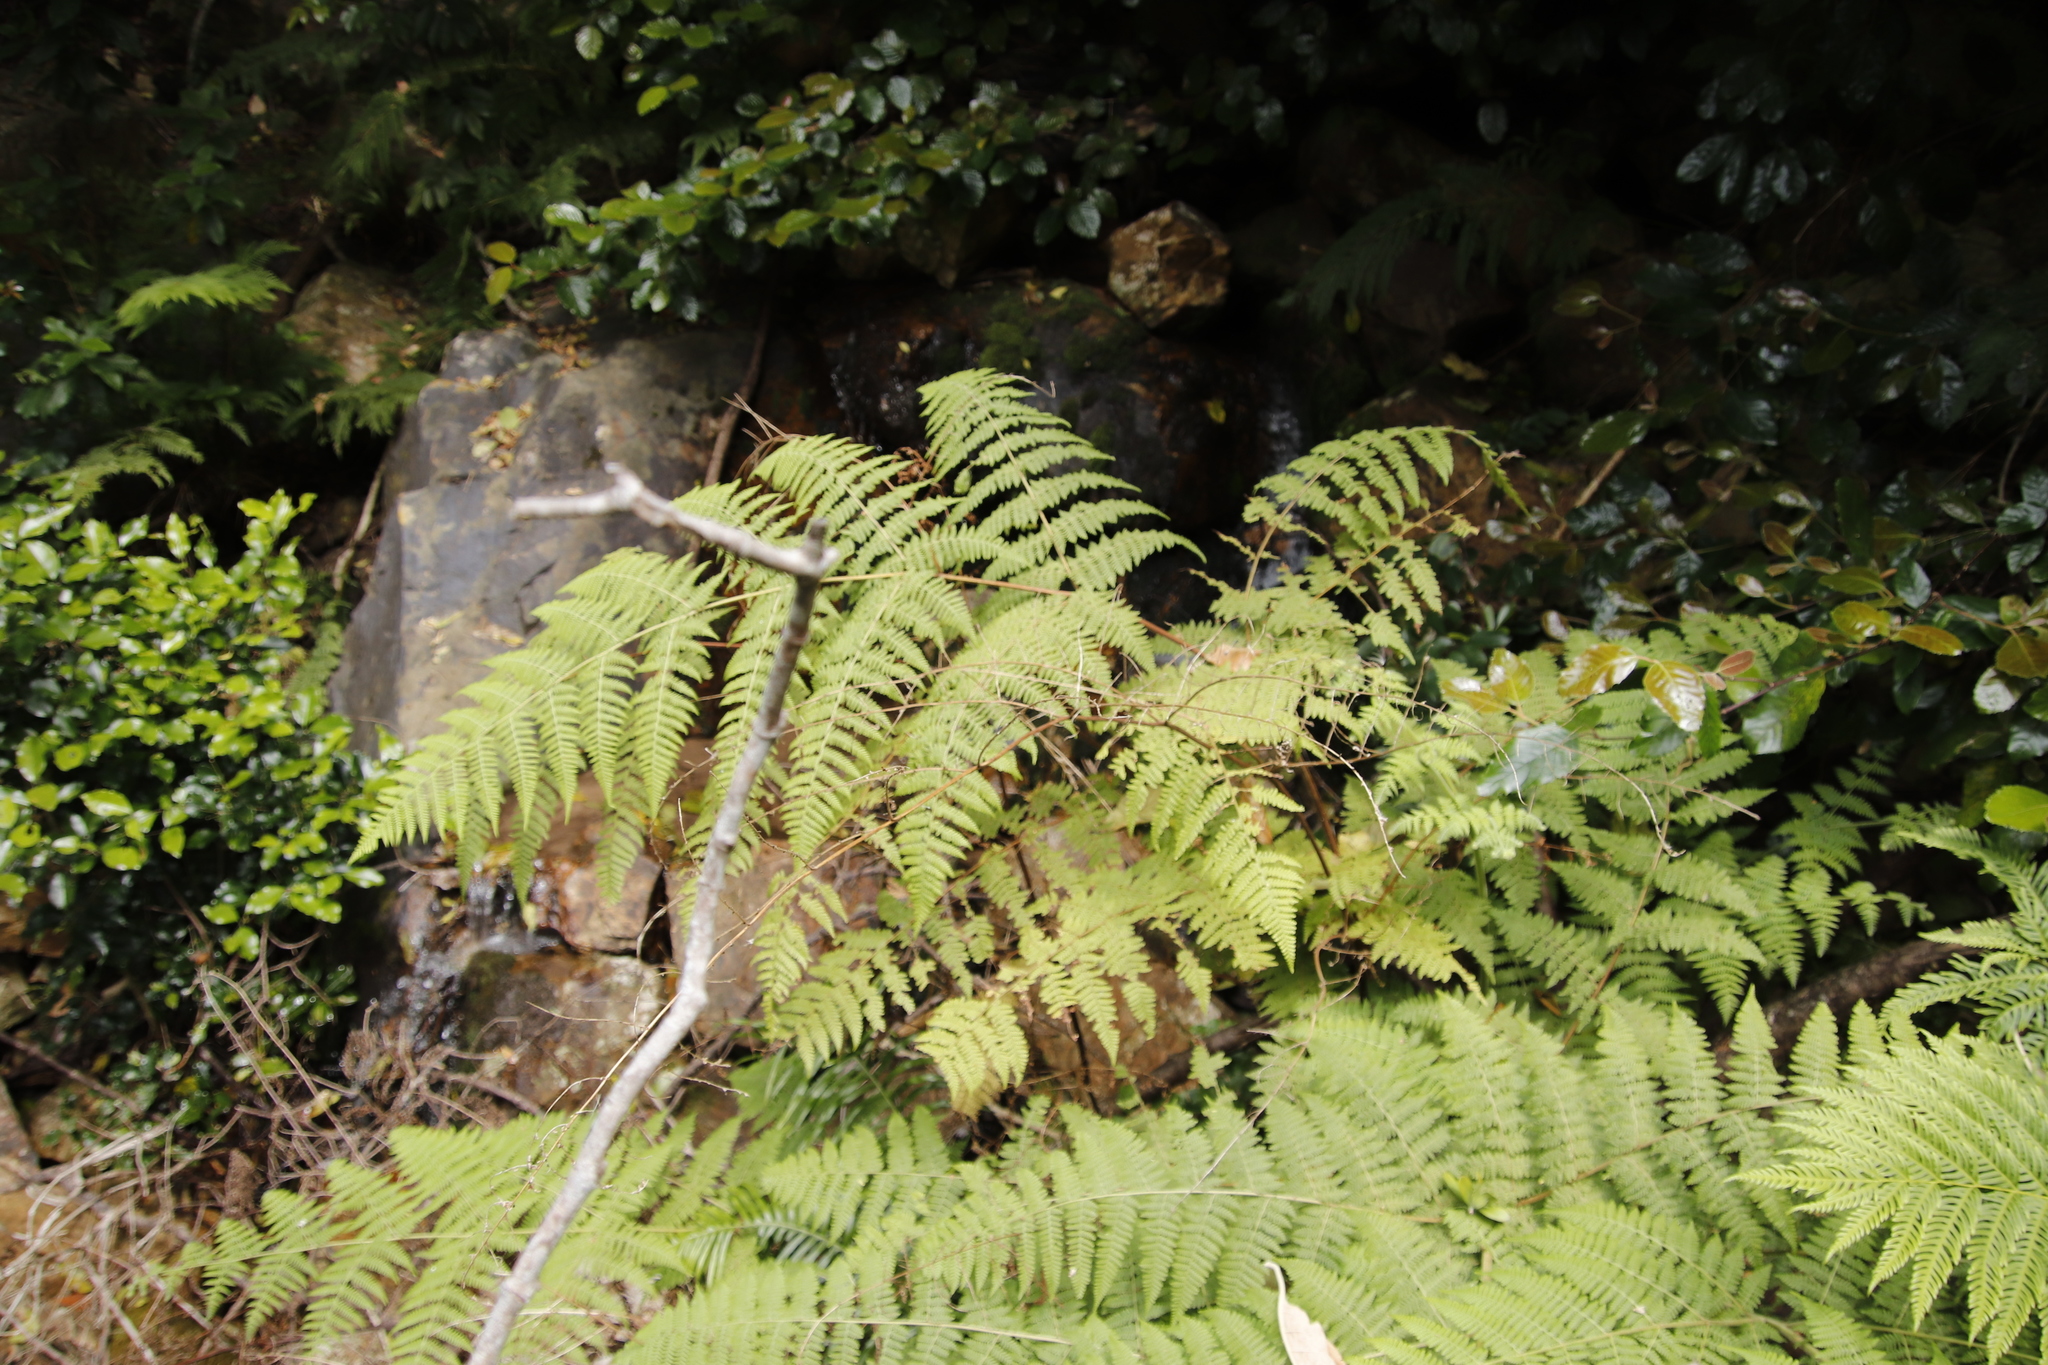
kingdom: Plantae
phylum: Tracheophyta
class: Polypodiopsida
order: Polypodiales
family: Dennstaedtiaceae
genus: Hypolepis
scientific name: Hypolepis sparsisora
